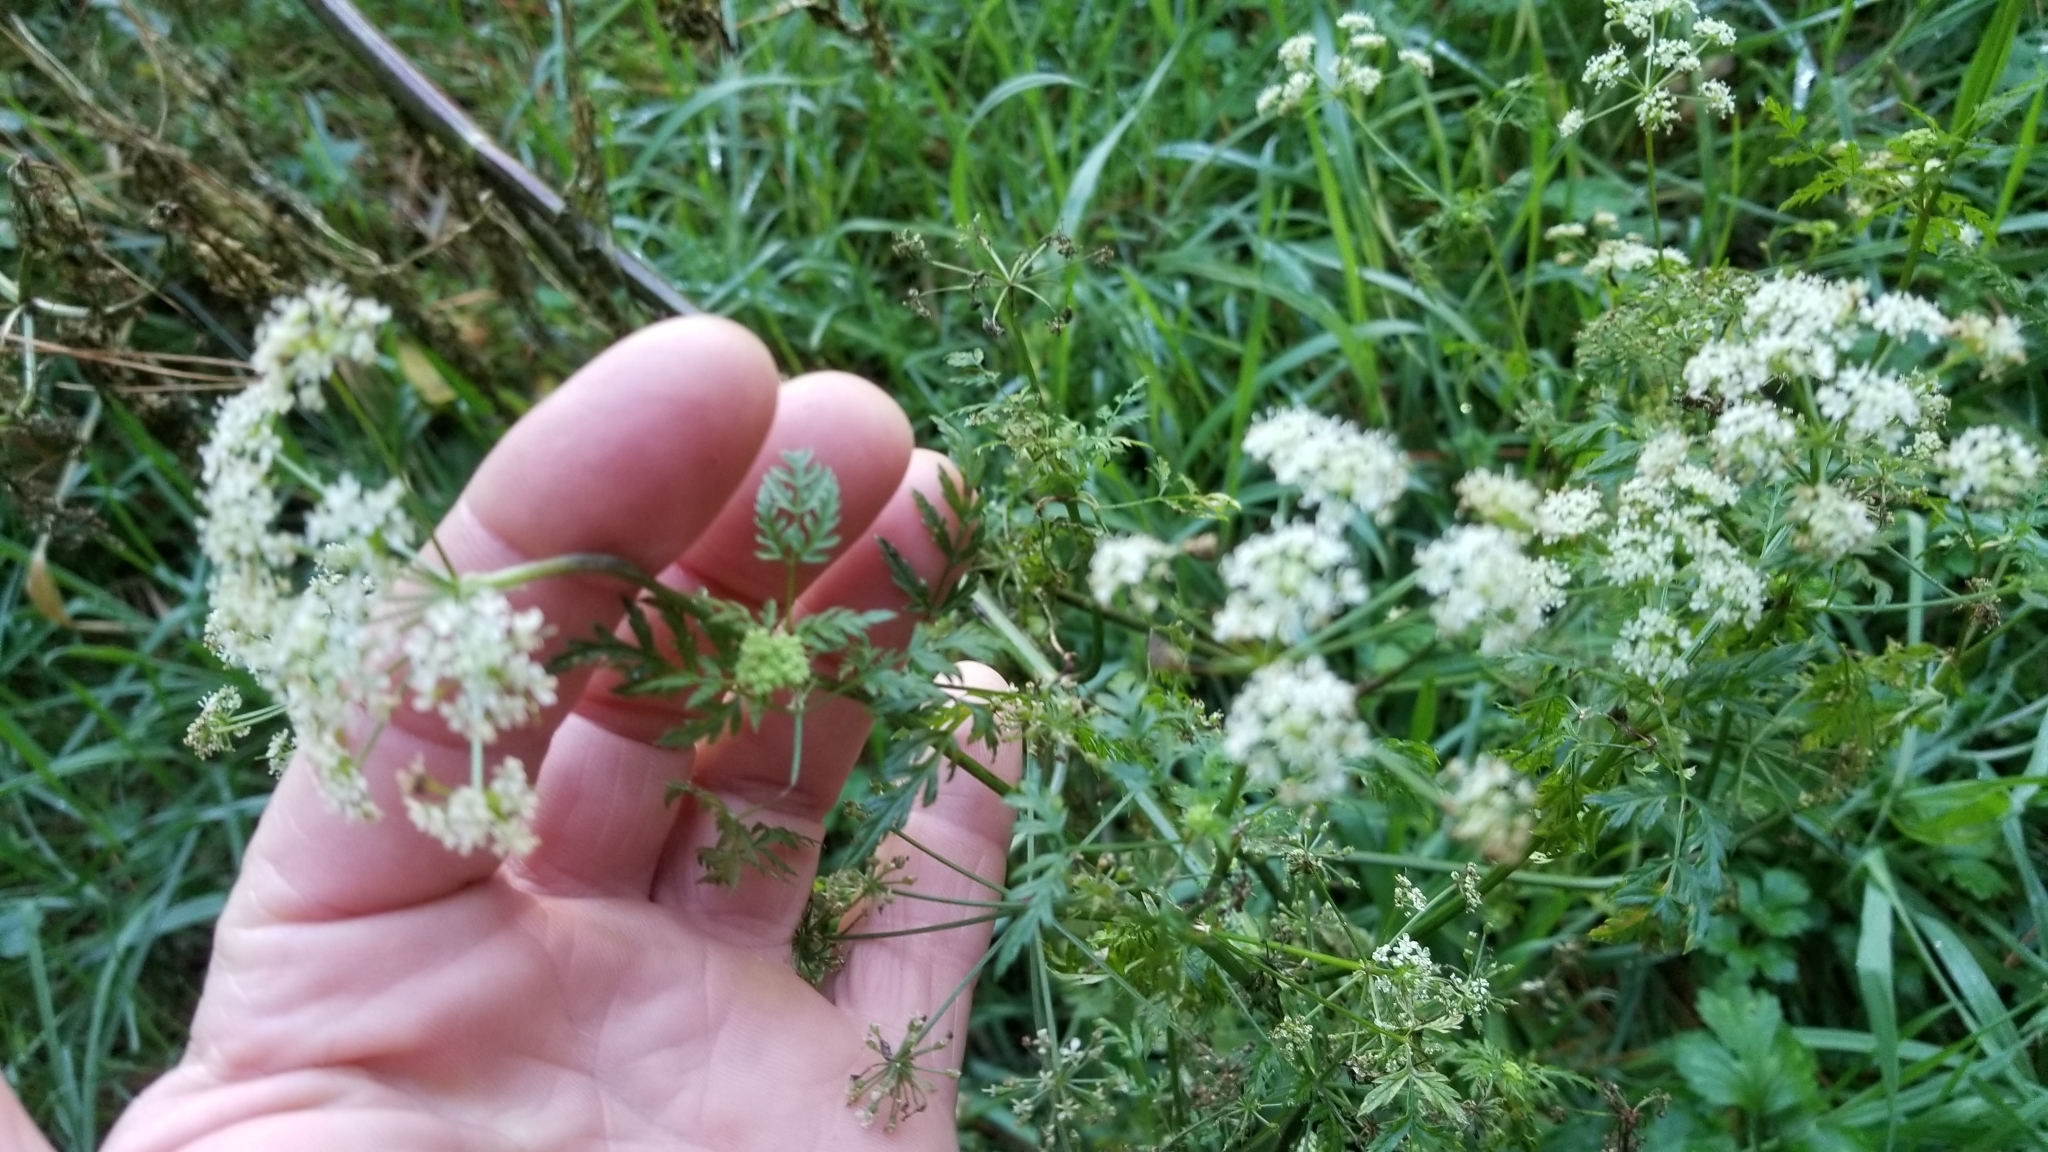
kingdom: Plantae
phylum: Tracheophyta
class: Magnoliopsida
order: Apiales
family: Apiaceae
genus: Conium
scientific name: Conium maculatum
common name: Hemlock
